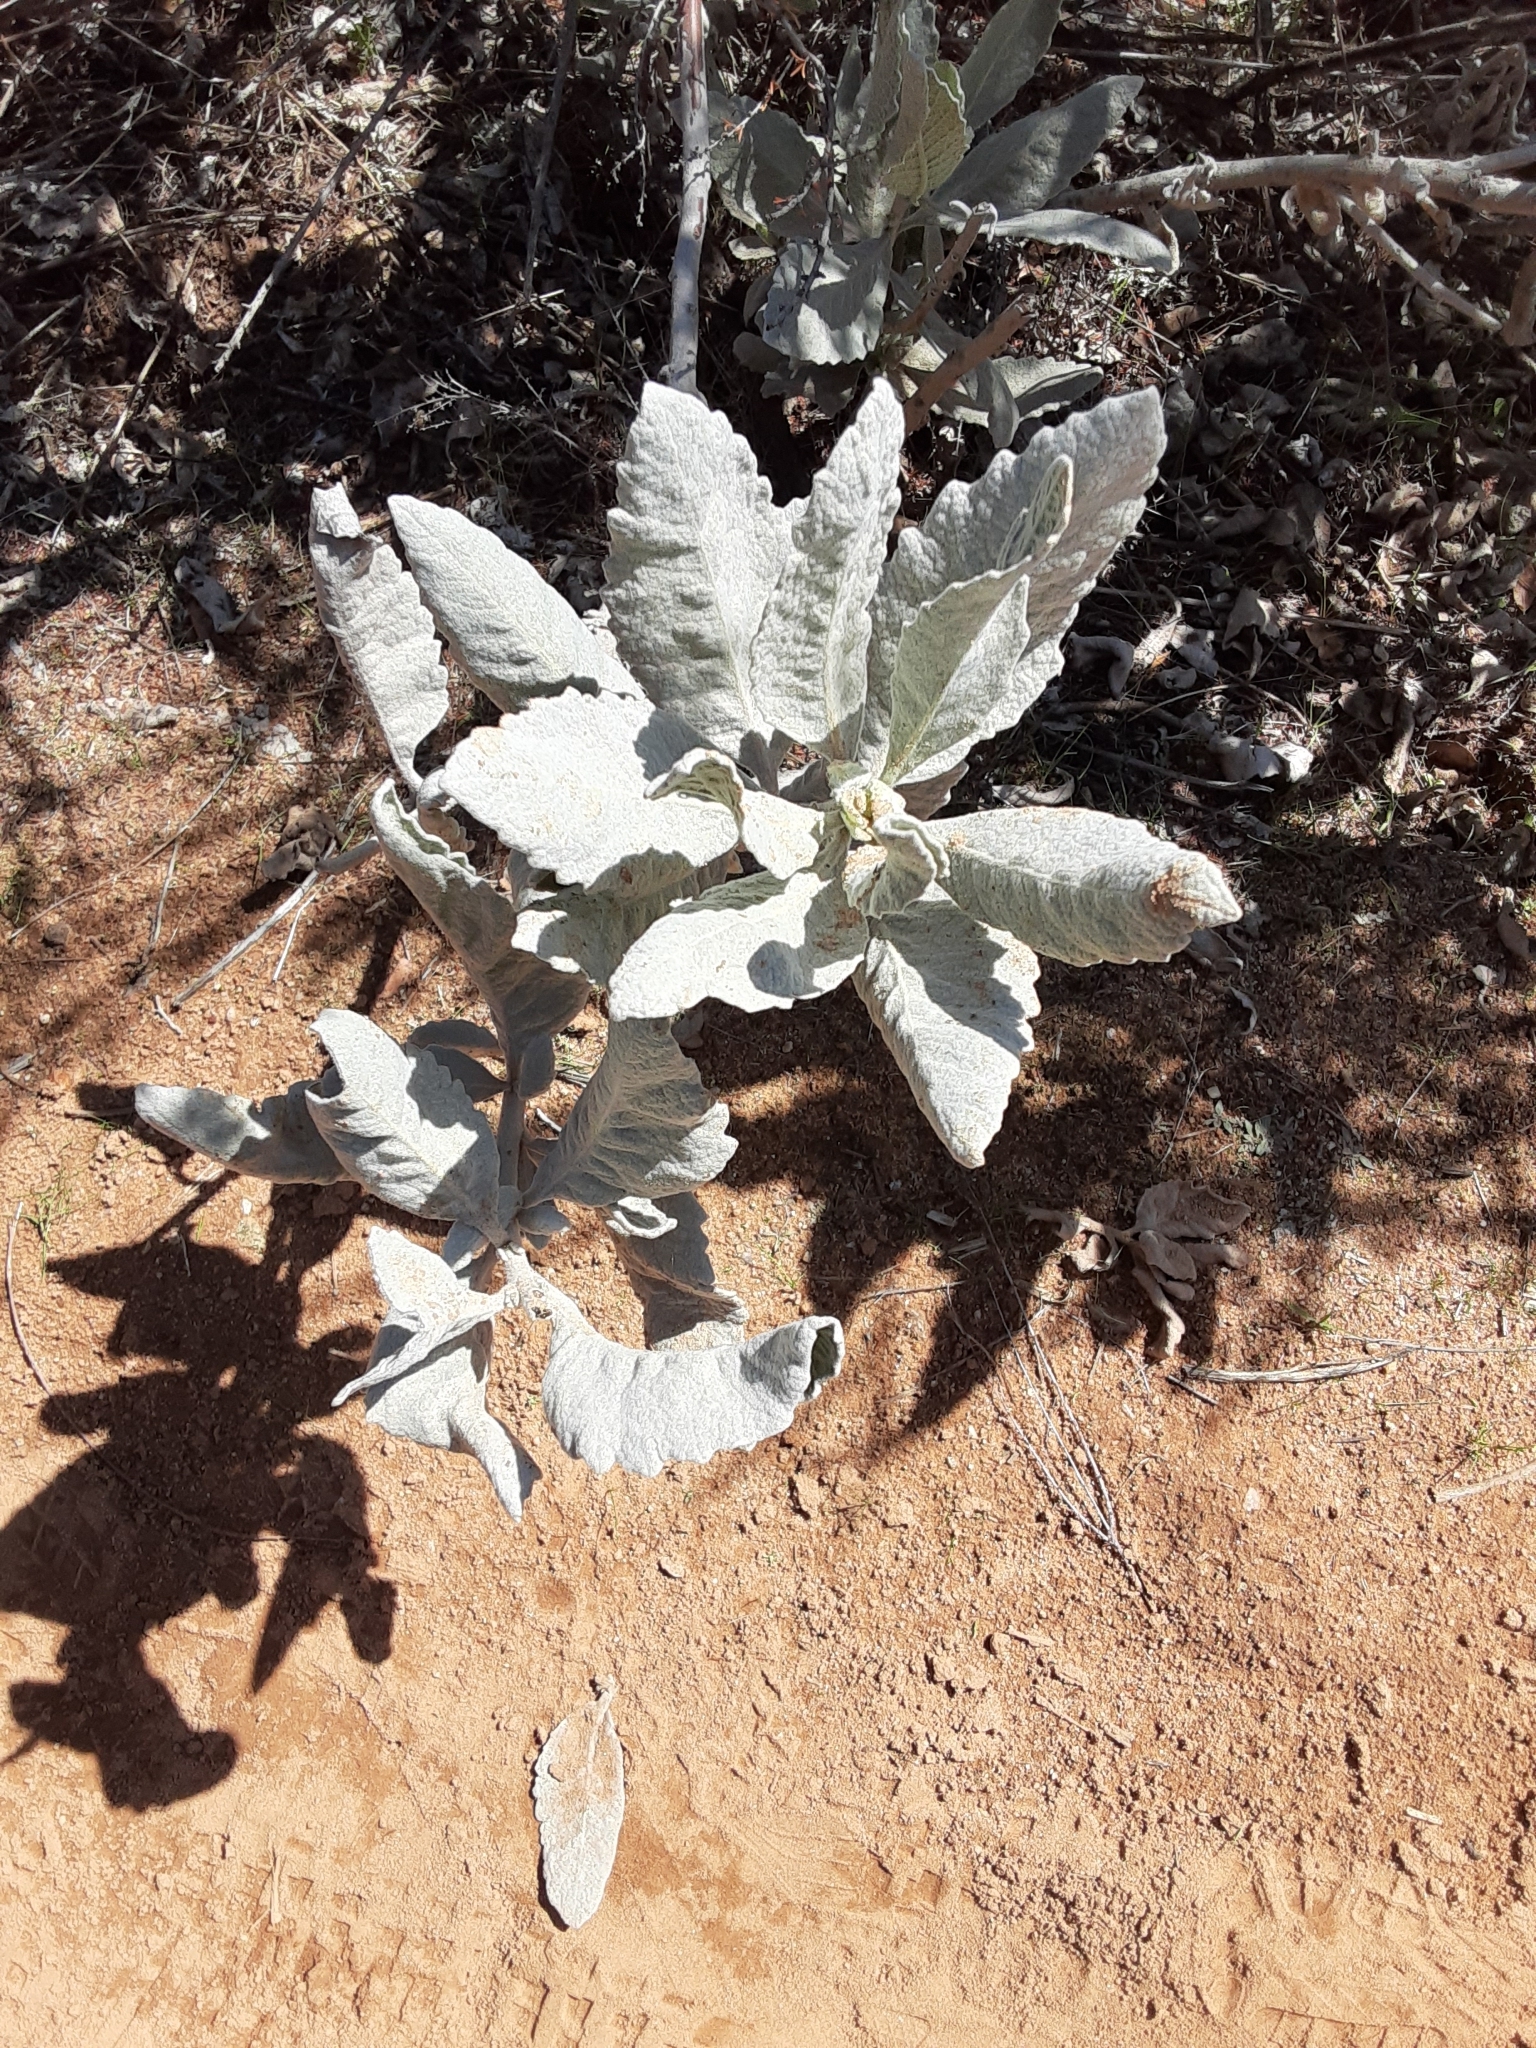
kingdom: Plantae
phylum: Tracheophyta
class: Magnoliopsida
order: Boraginales
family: Namaceae
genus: Eriodictyon
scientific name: Eriodictyon tomentosum
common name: Woolly yerba-santa
